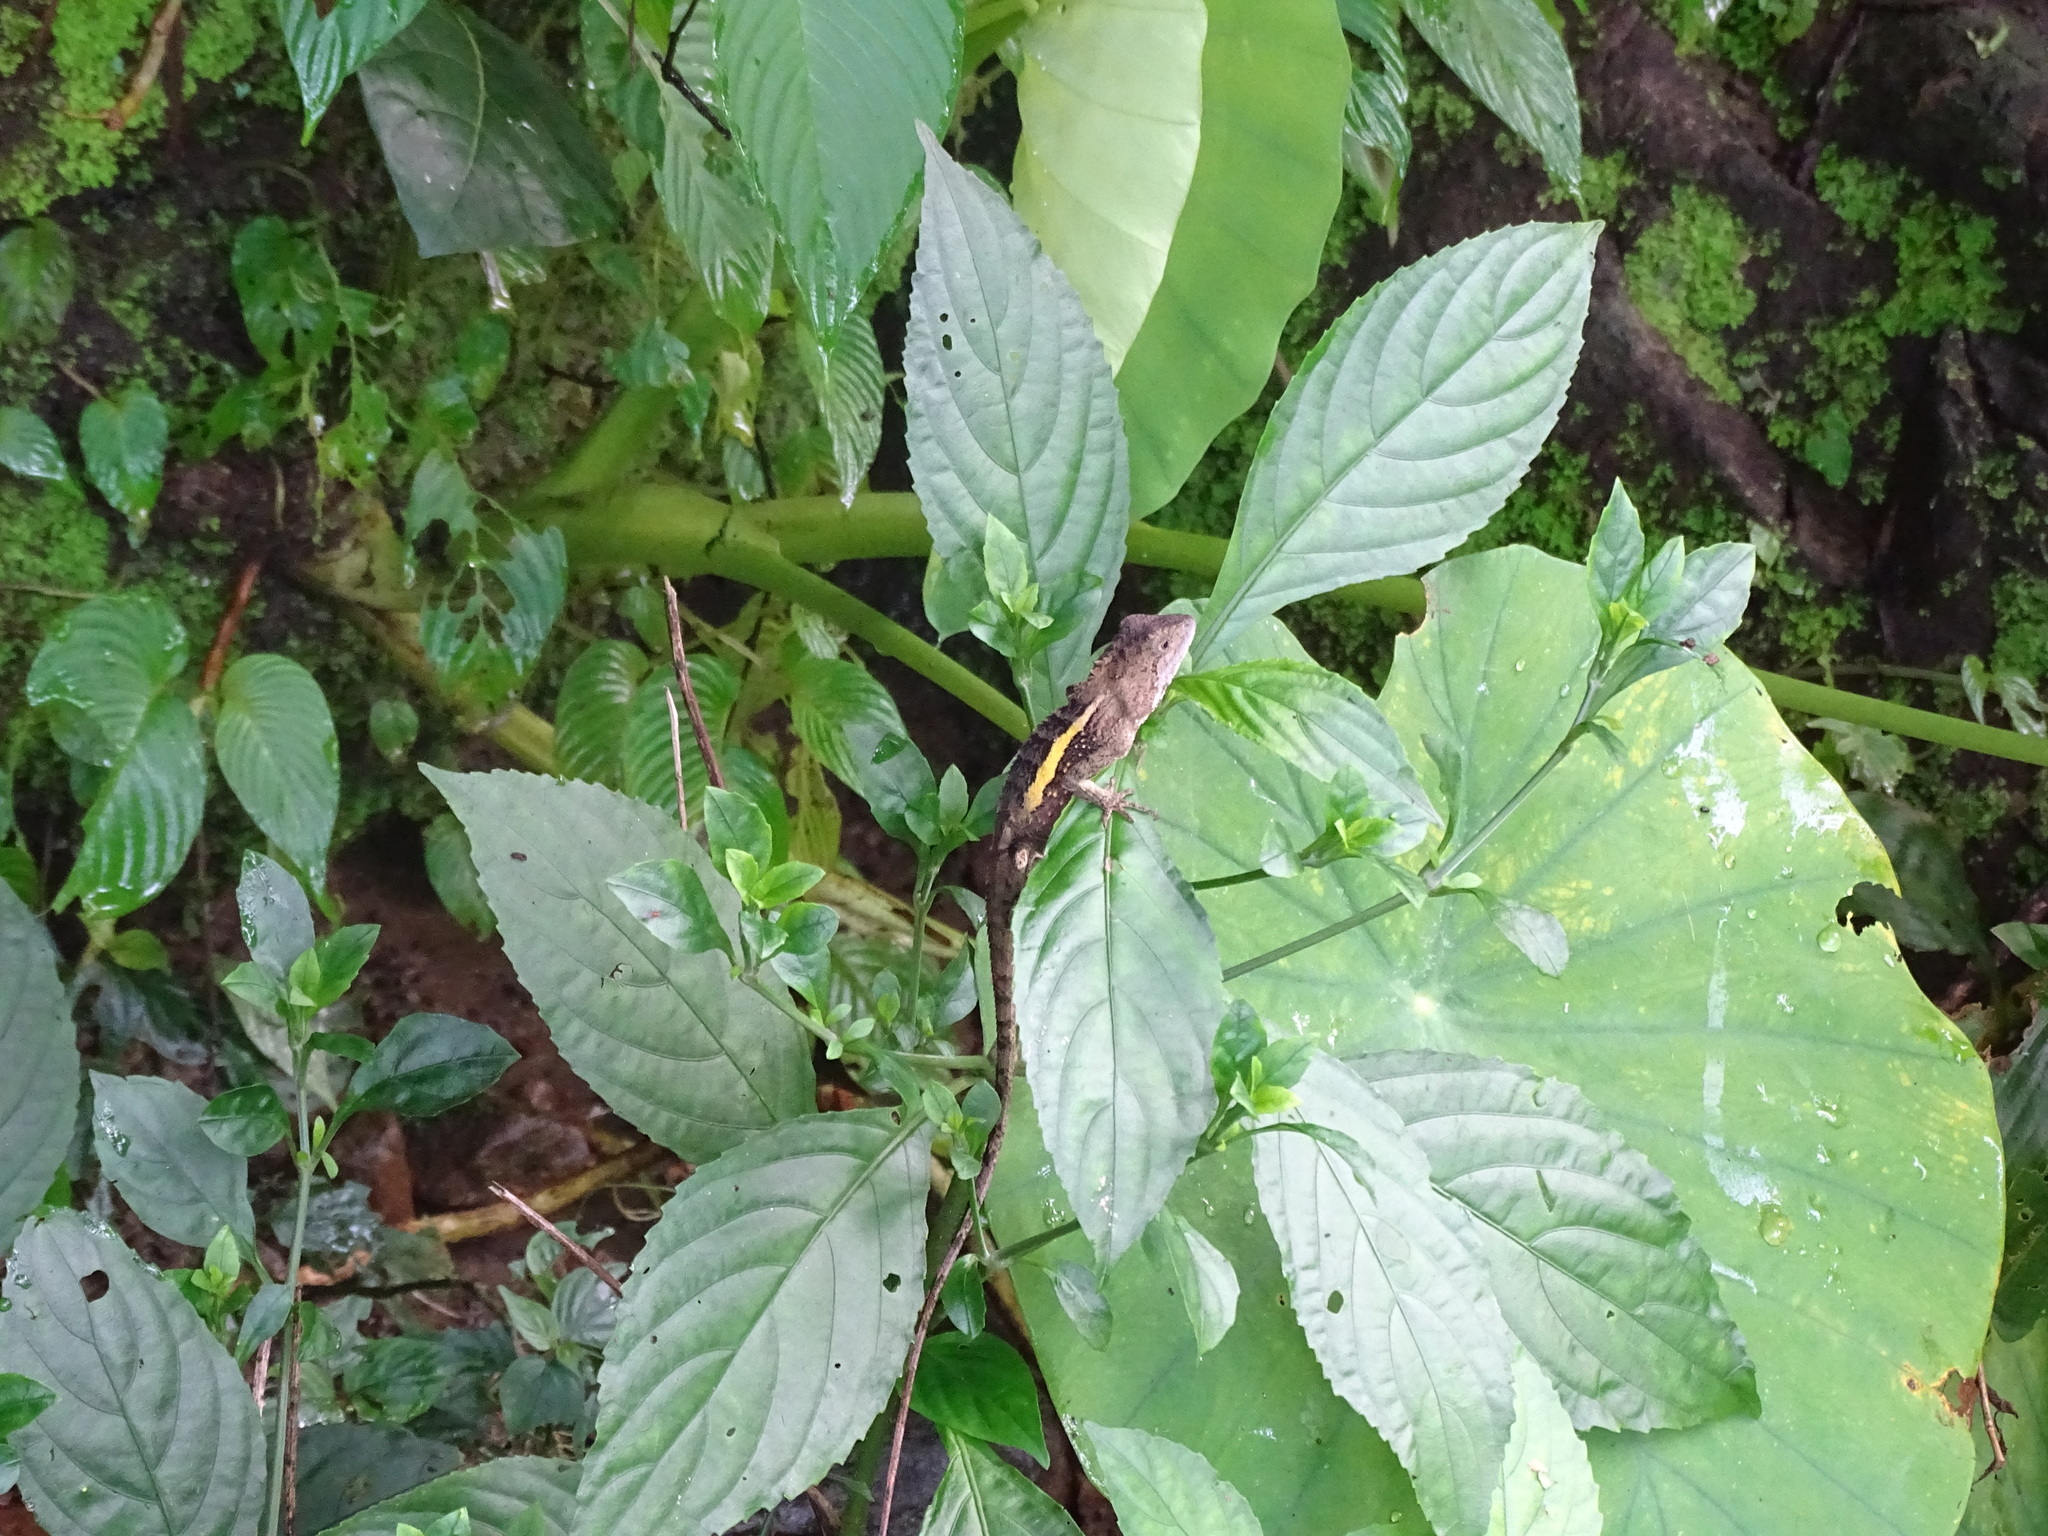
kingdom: Animalia
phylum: Chordata
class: Squamata
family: Agamidae
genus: Diploderma
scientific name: Diploderma swinhonis
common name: Taiwan japalure
